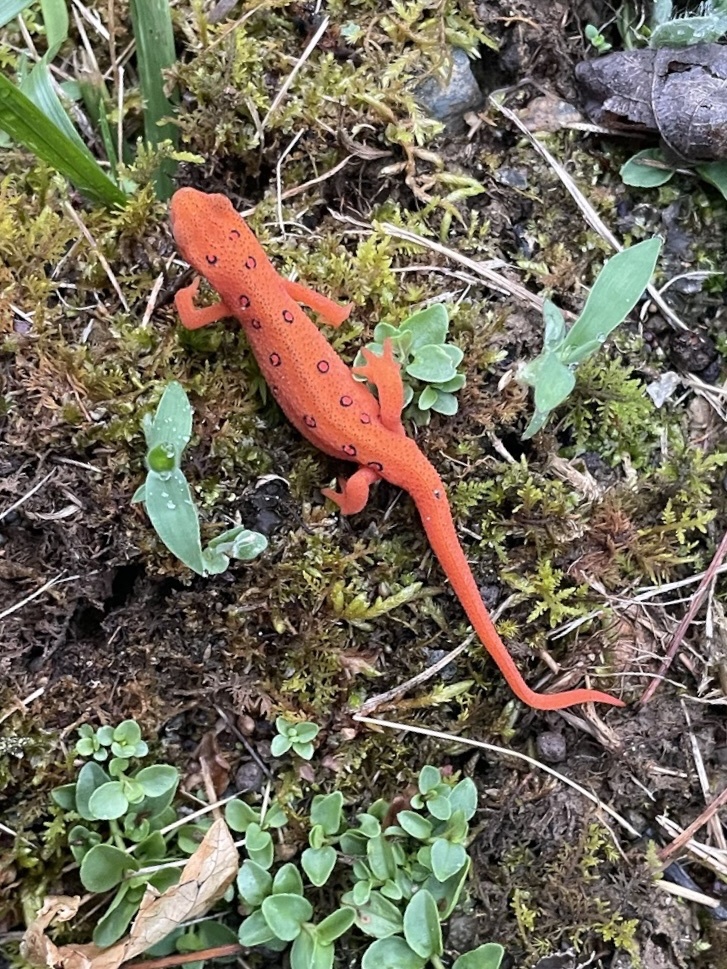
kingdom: Animalia
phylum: Chordata
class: Amphibia
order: Caudata
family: Salamandridae
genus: Notophthalmus
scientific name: Notophthalmus viridescens
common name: Eastern newt
